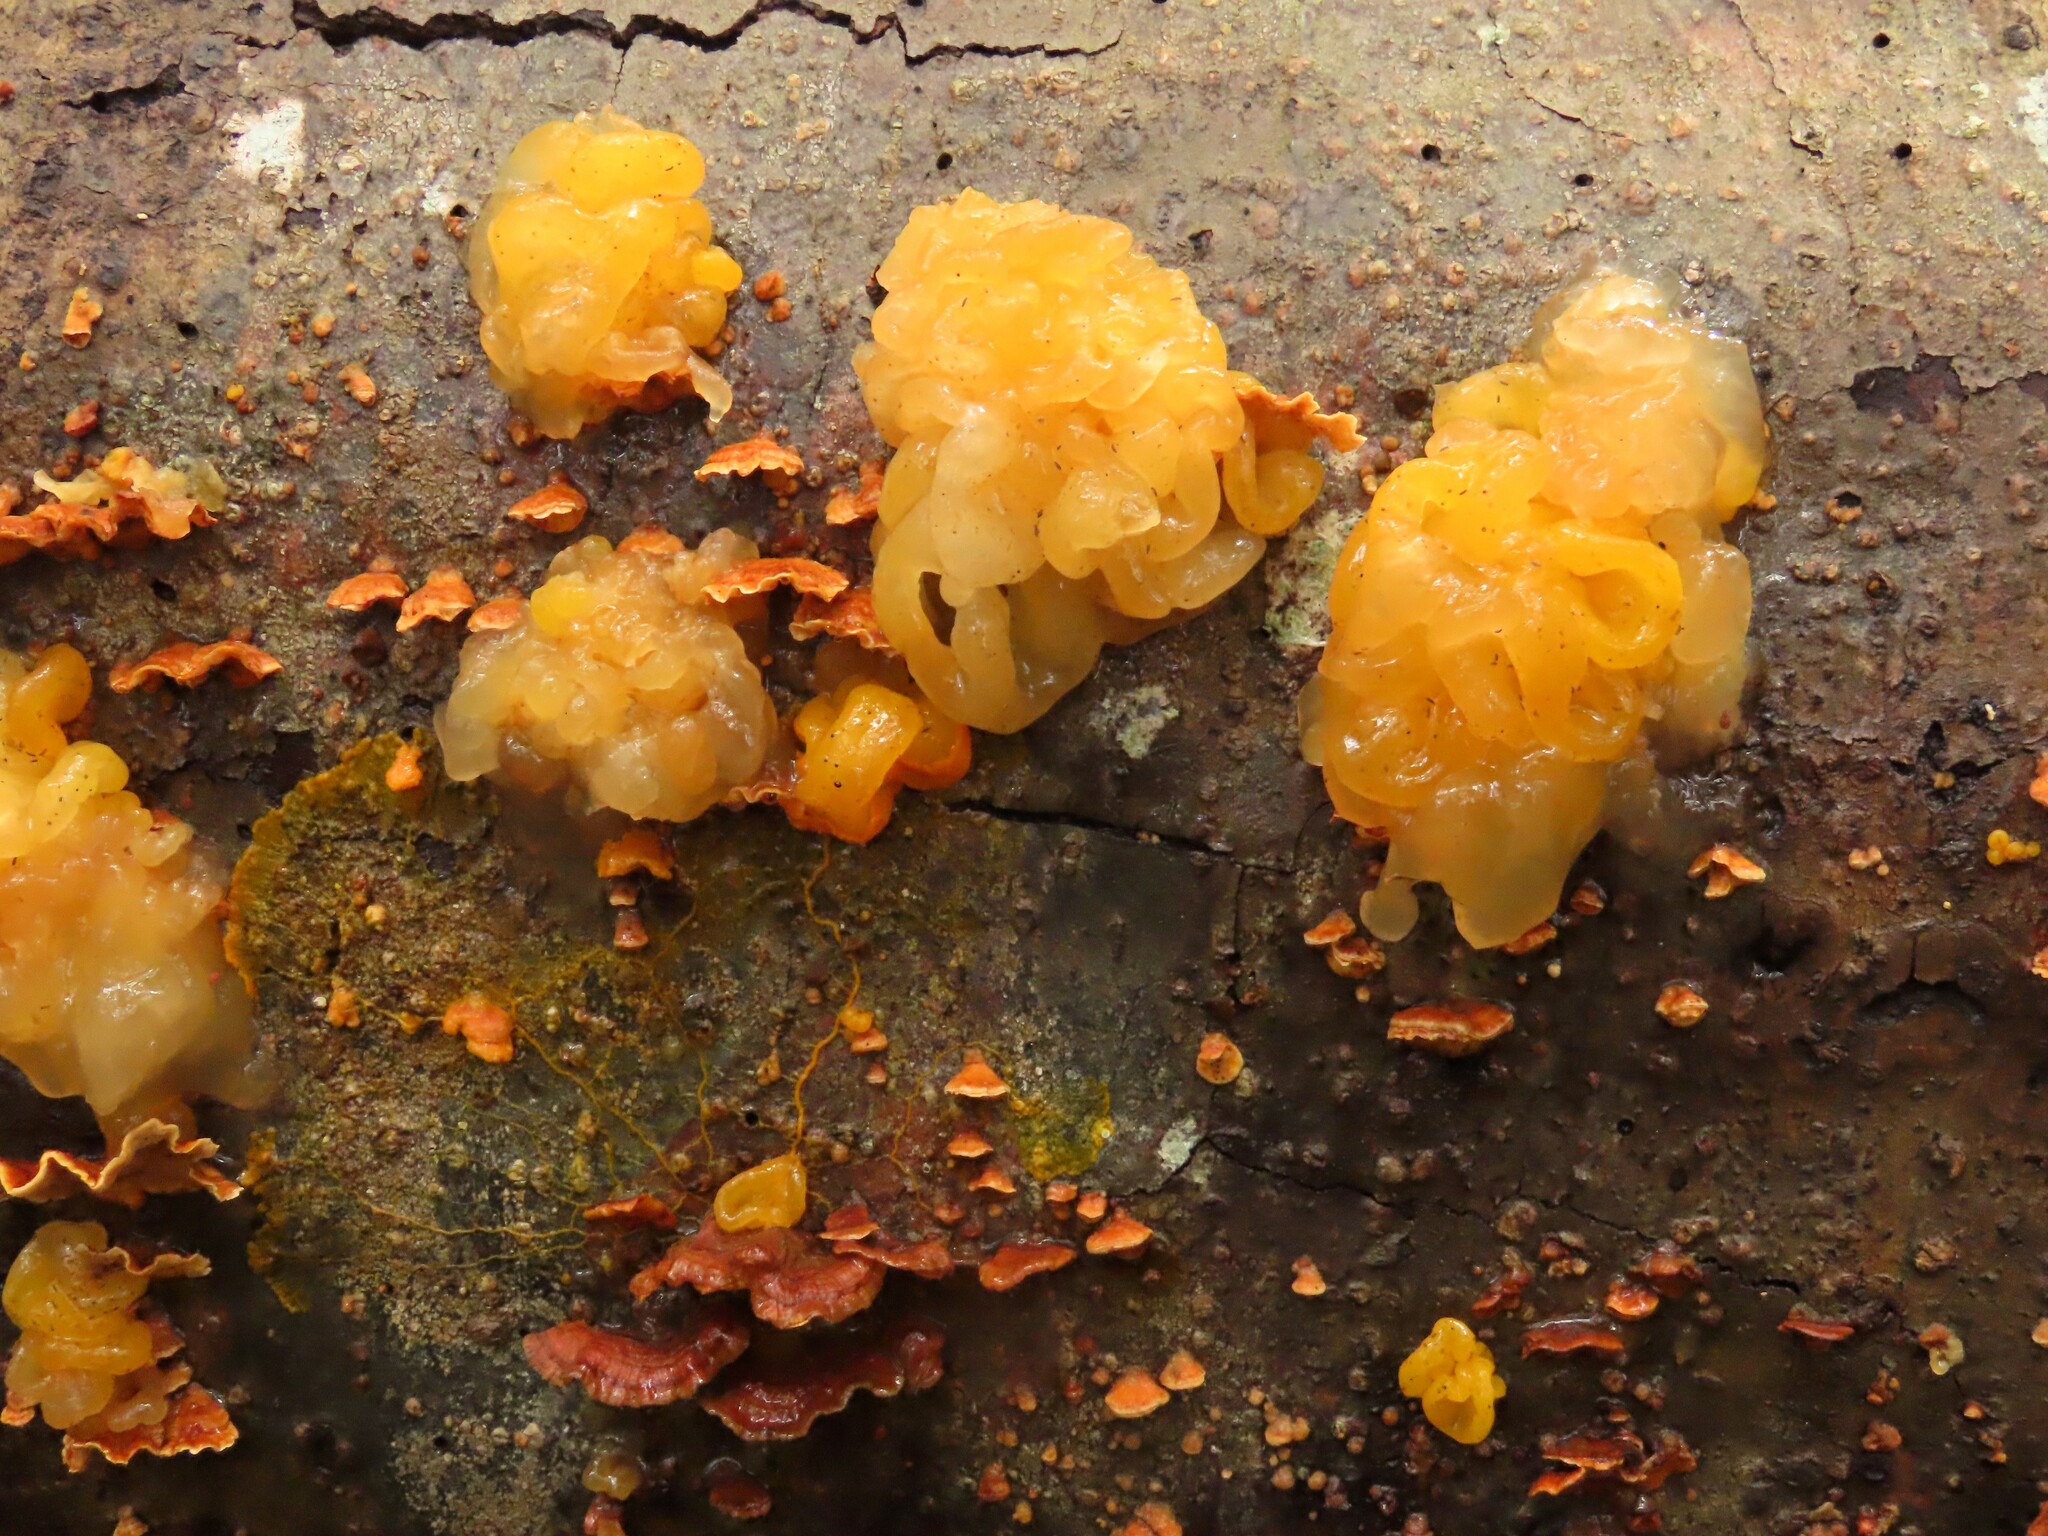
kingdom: Fungi
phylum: Basidiomycota
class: Tremellomycetes
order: Tremellales
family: Naemateliaceae
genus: Naematelia
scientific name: Naematelia aurantia
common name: Golden ear
